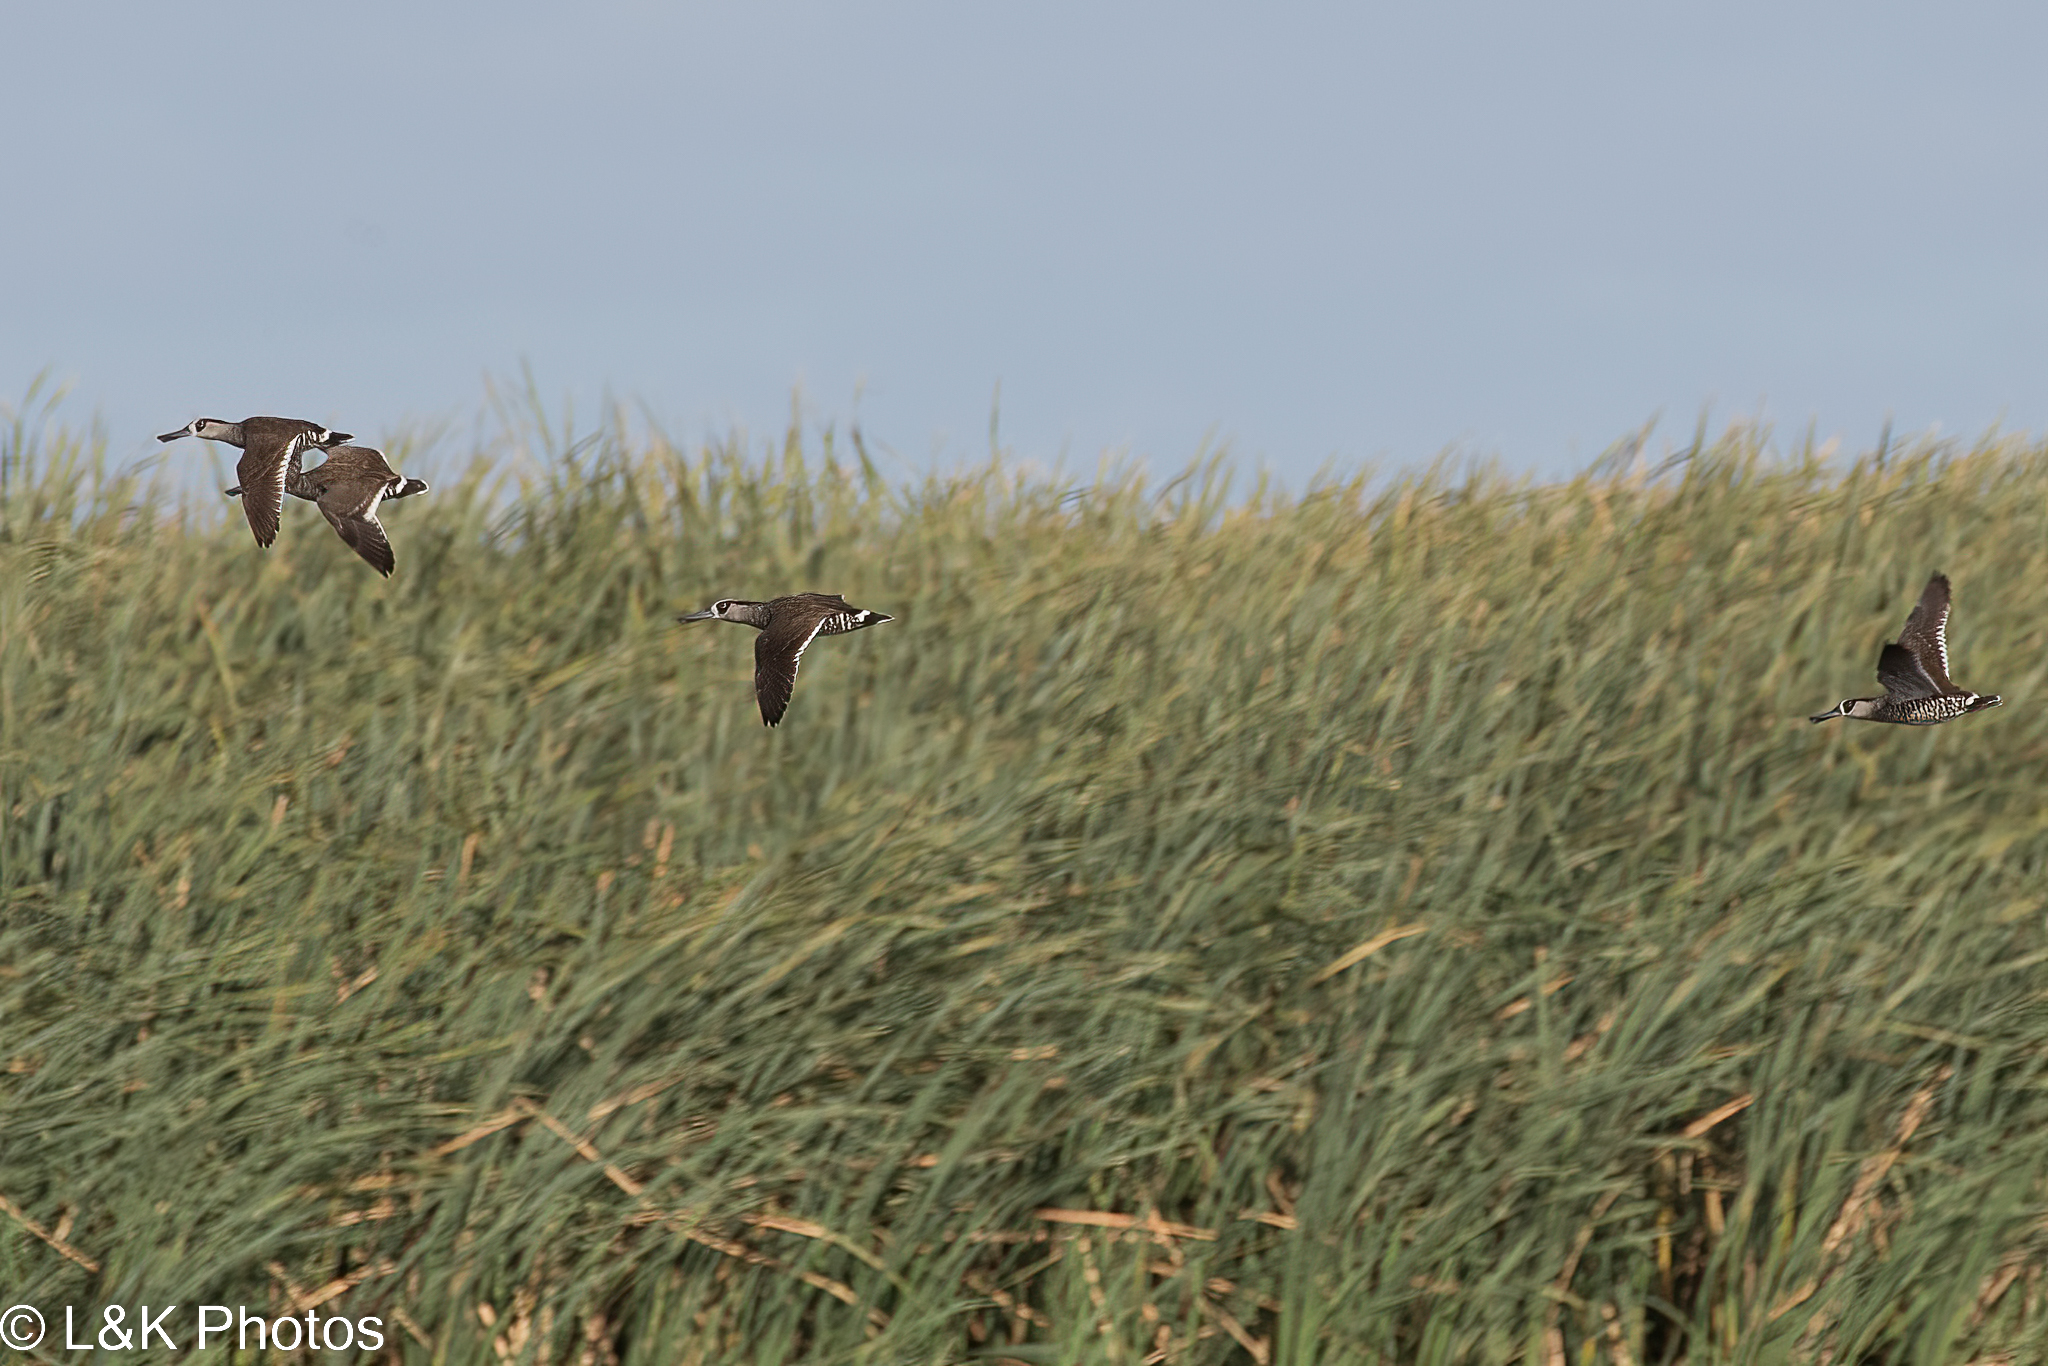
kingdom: Animalia
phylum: Chordata
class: Aves
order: Anseriformes
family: Anatidae
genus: Malacorhynchus
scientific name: Malacorhynchus membranaceus
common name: Pink-eared duck
